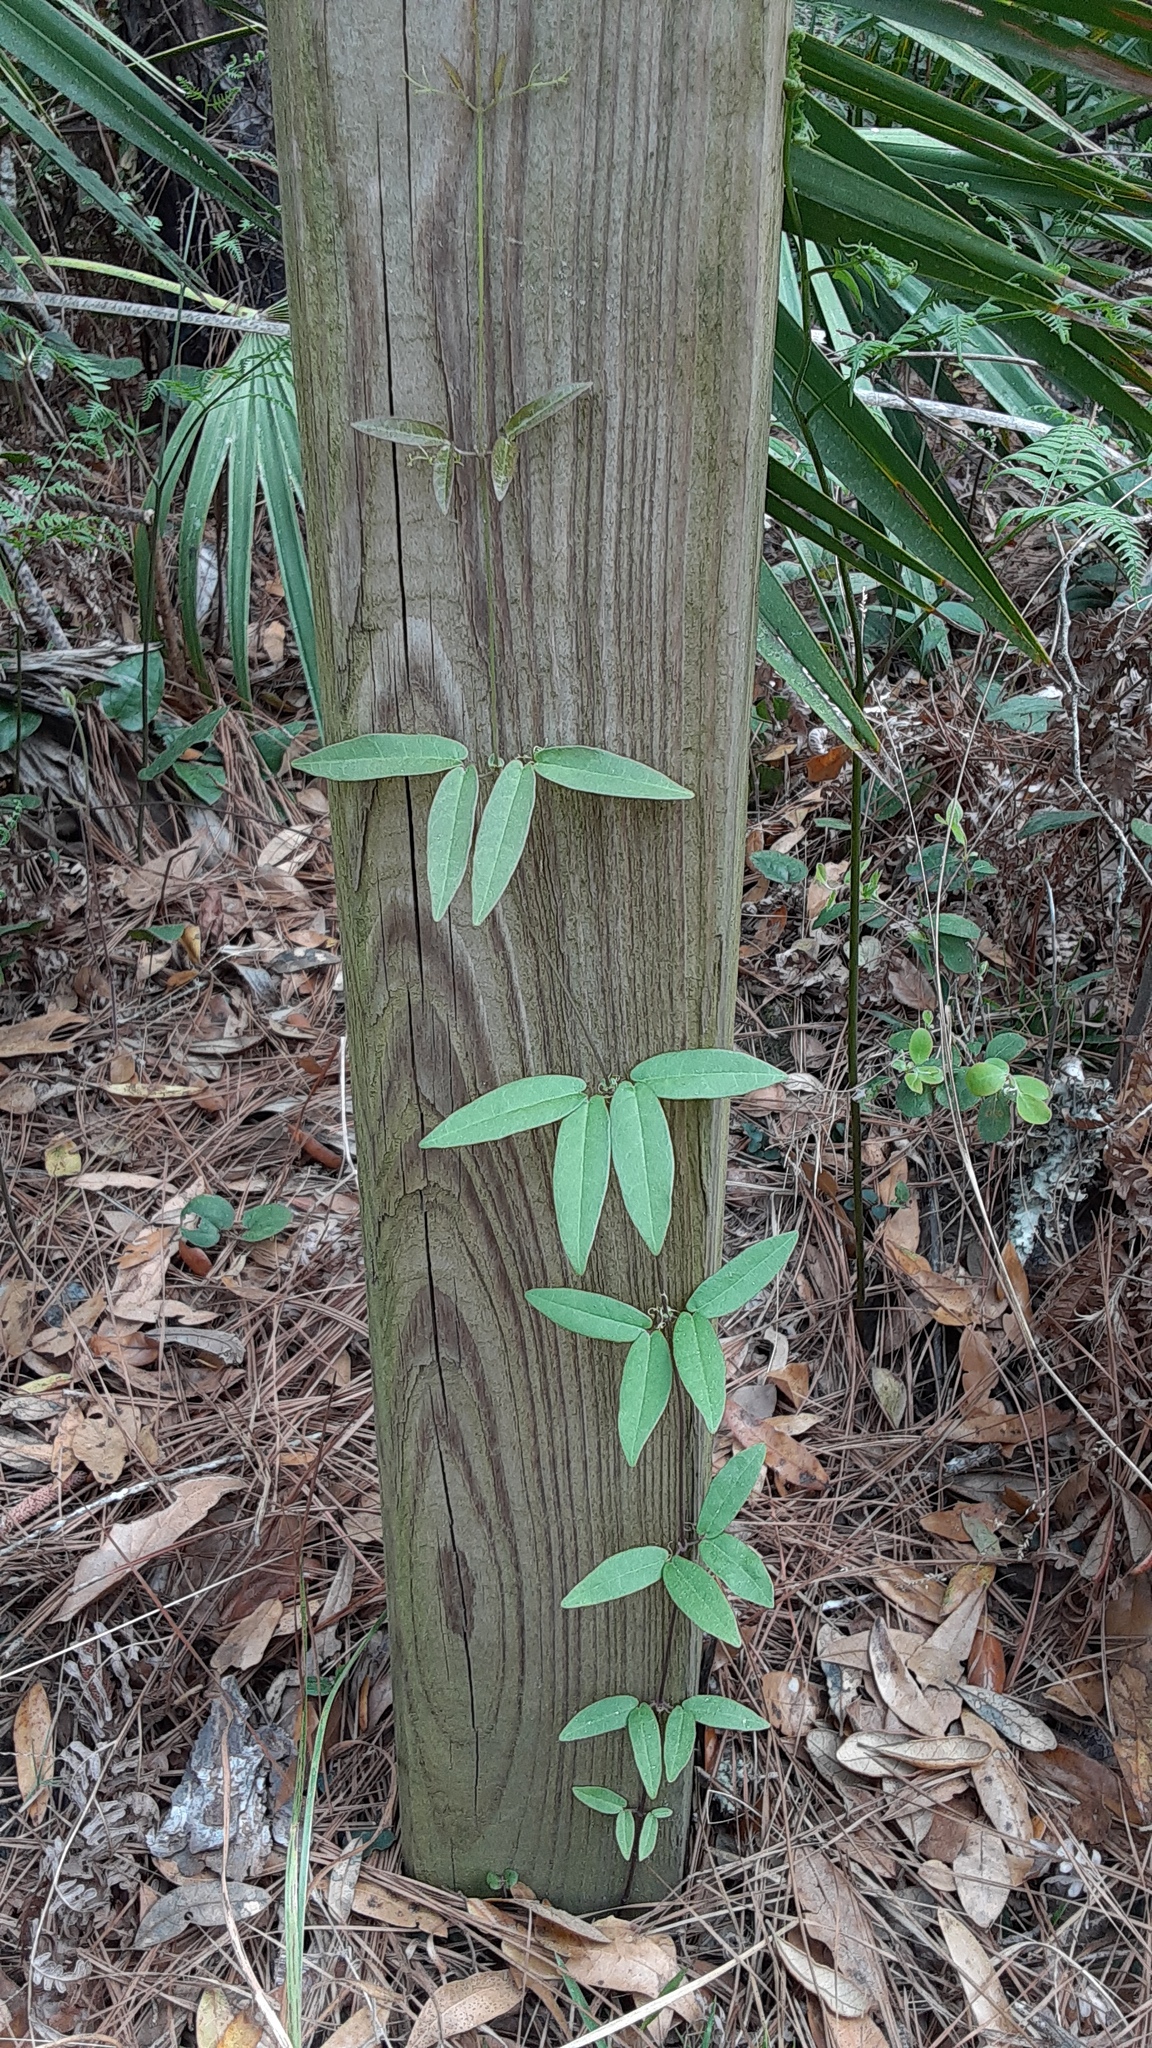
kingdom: Plantae
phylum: Tracheophyta
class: Magnoliopsida
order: Lamiales
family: Bignoniaceae
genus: Bignonia
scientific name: Bignonia capreolata
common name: Crossvine
